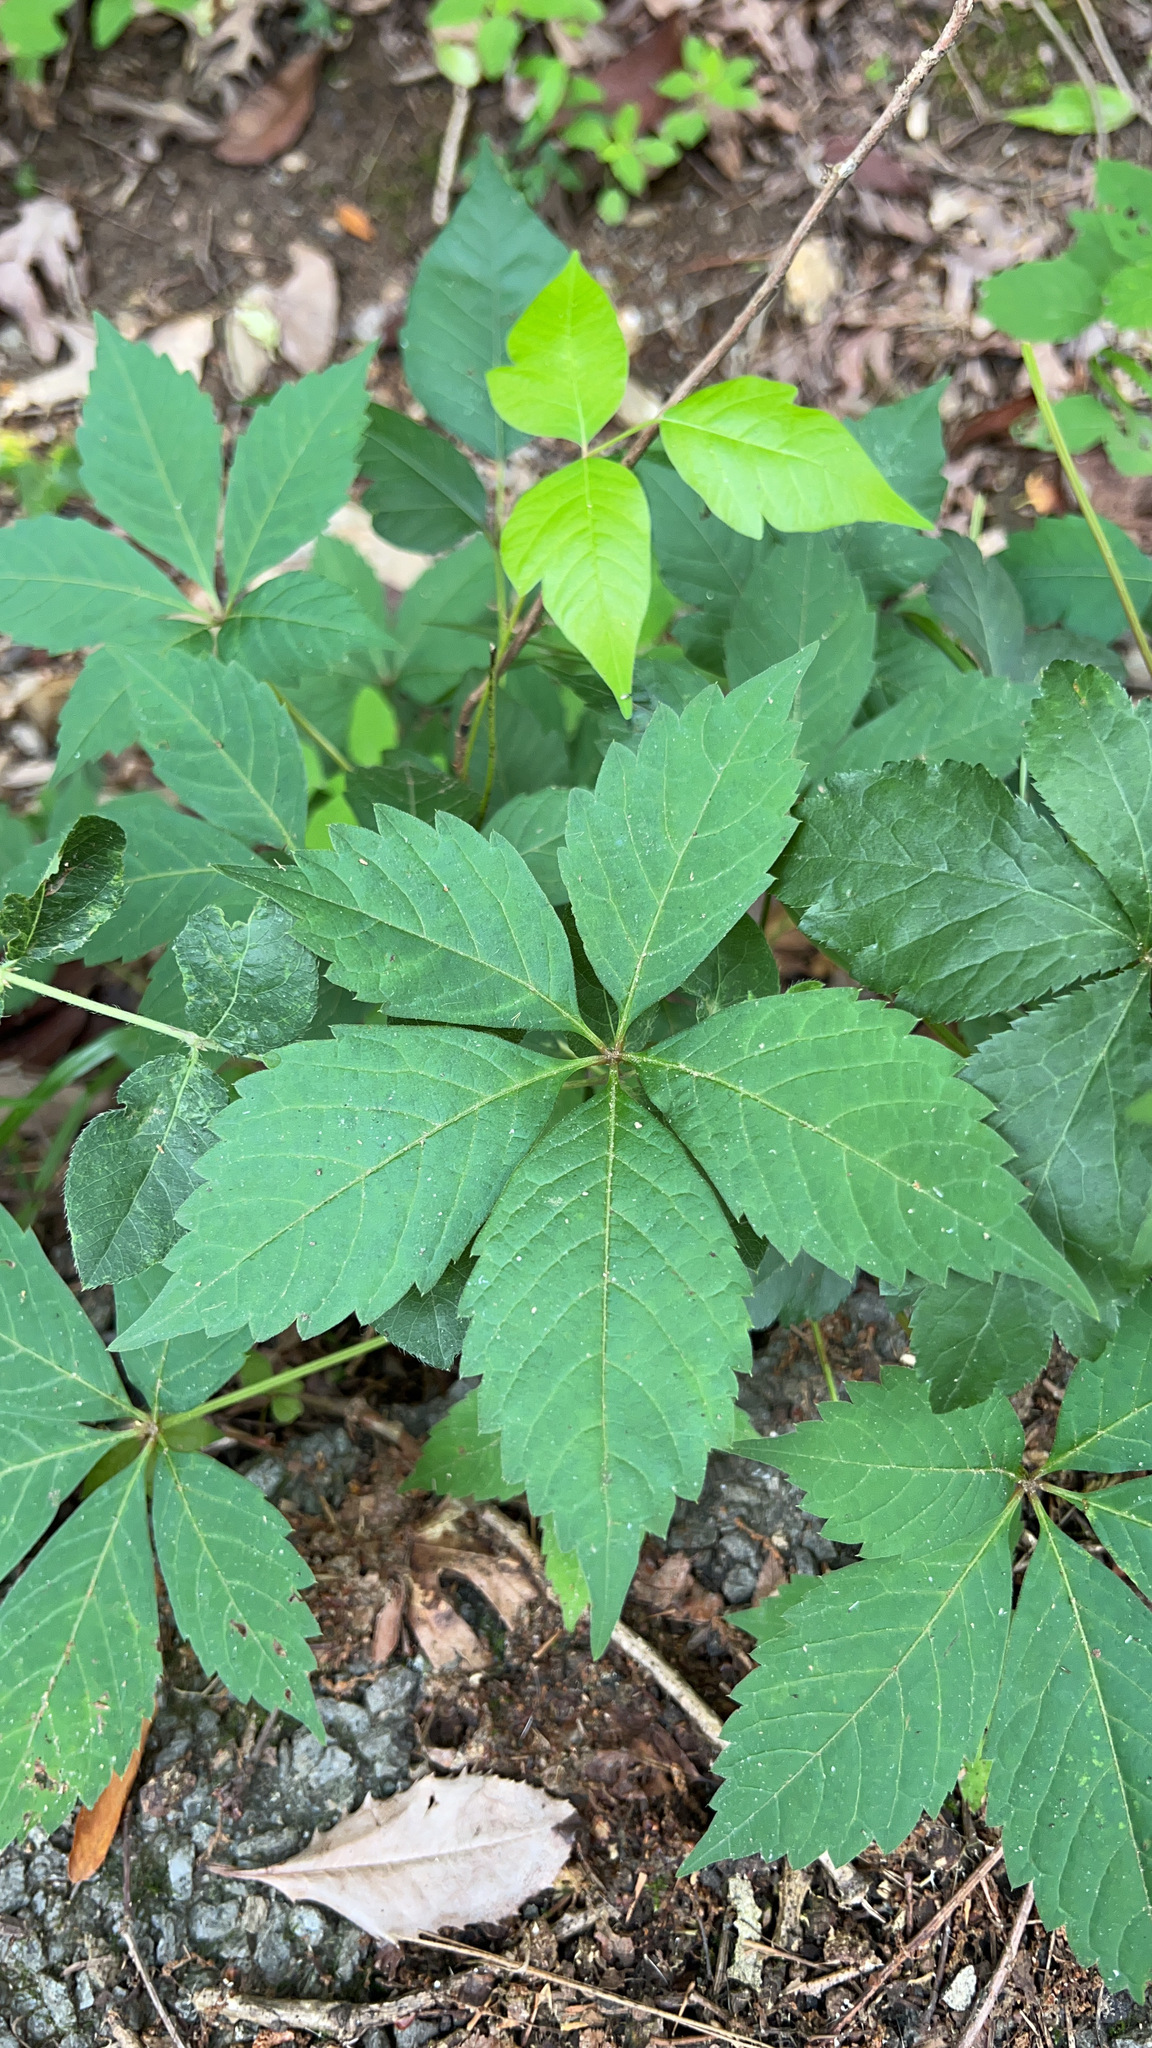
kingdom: Plantae
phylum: Tracheophyta
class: Magnoliopsida
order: Vitales
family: Vitaceae
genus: Parthenocissus
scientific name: Parthenocissus quinquefolia
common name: Virginia-creeper
